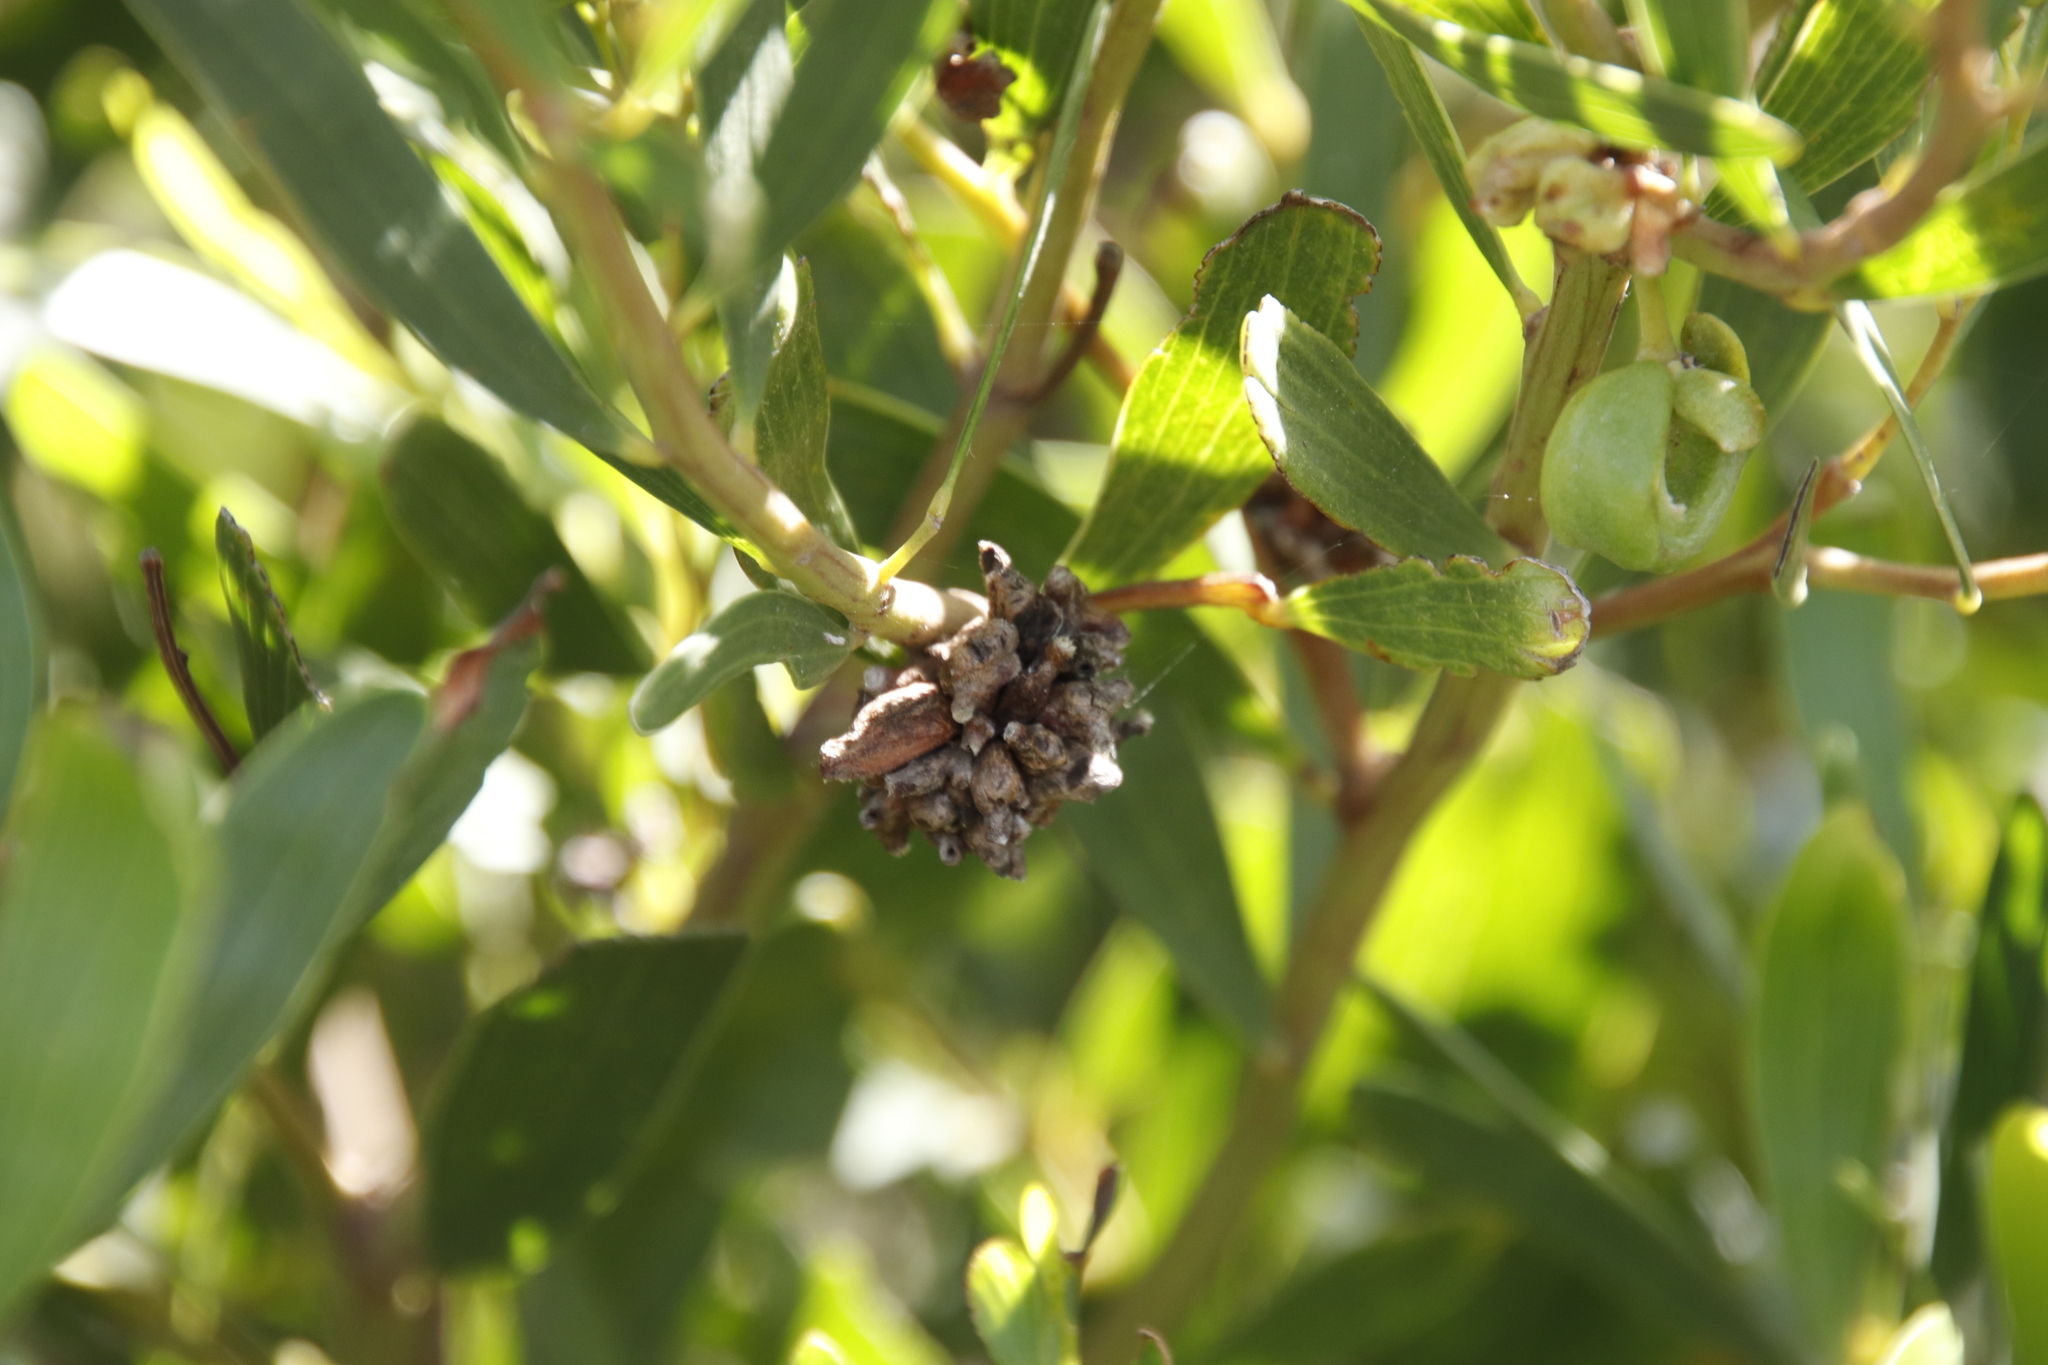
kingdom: Animalia
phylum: Arthropoda
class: Insecta
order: Diptera
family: Cecidomyiidae
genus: Dasineura
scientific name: Dasineura dielsi
